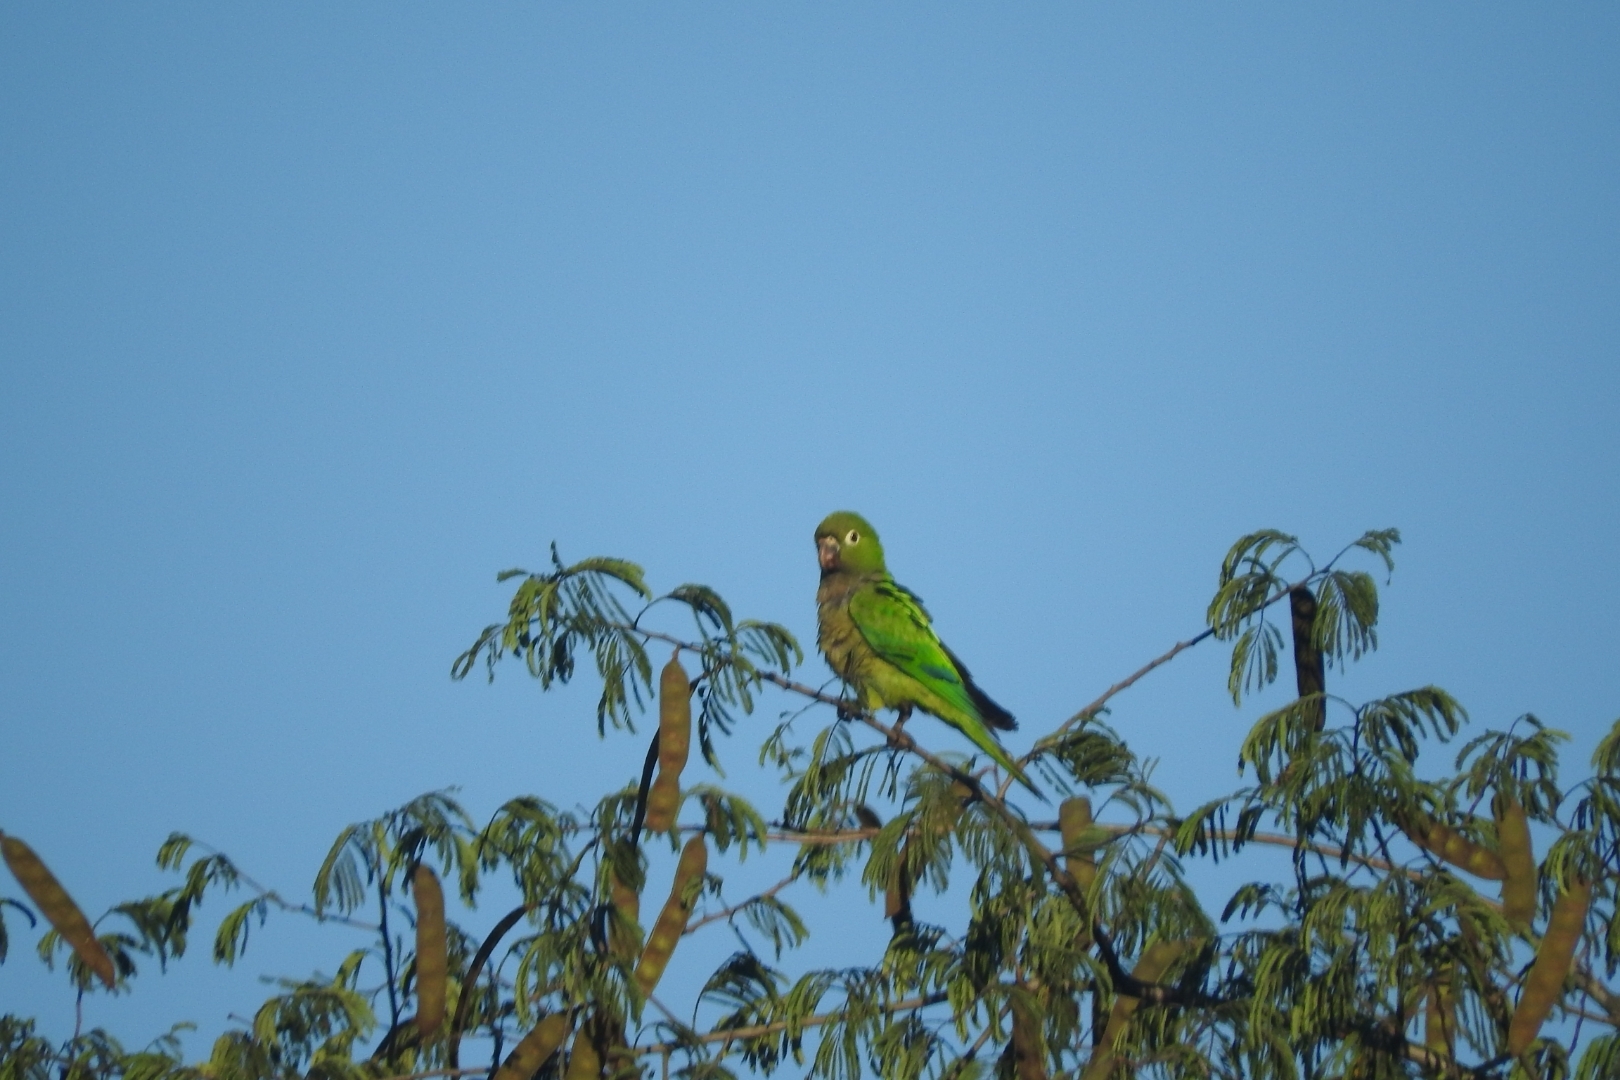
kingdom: Animalia
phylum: Chordata
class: Aves
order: Psittaciformes
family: Psittacidae
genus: Aratinga
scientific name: Aratinga nana
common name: Olive-throated parakeet
